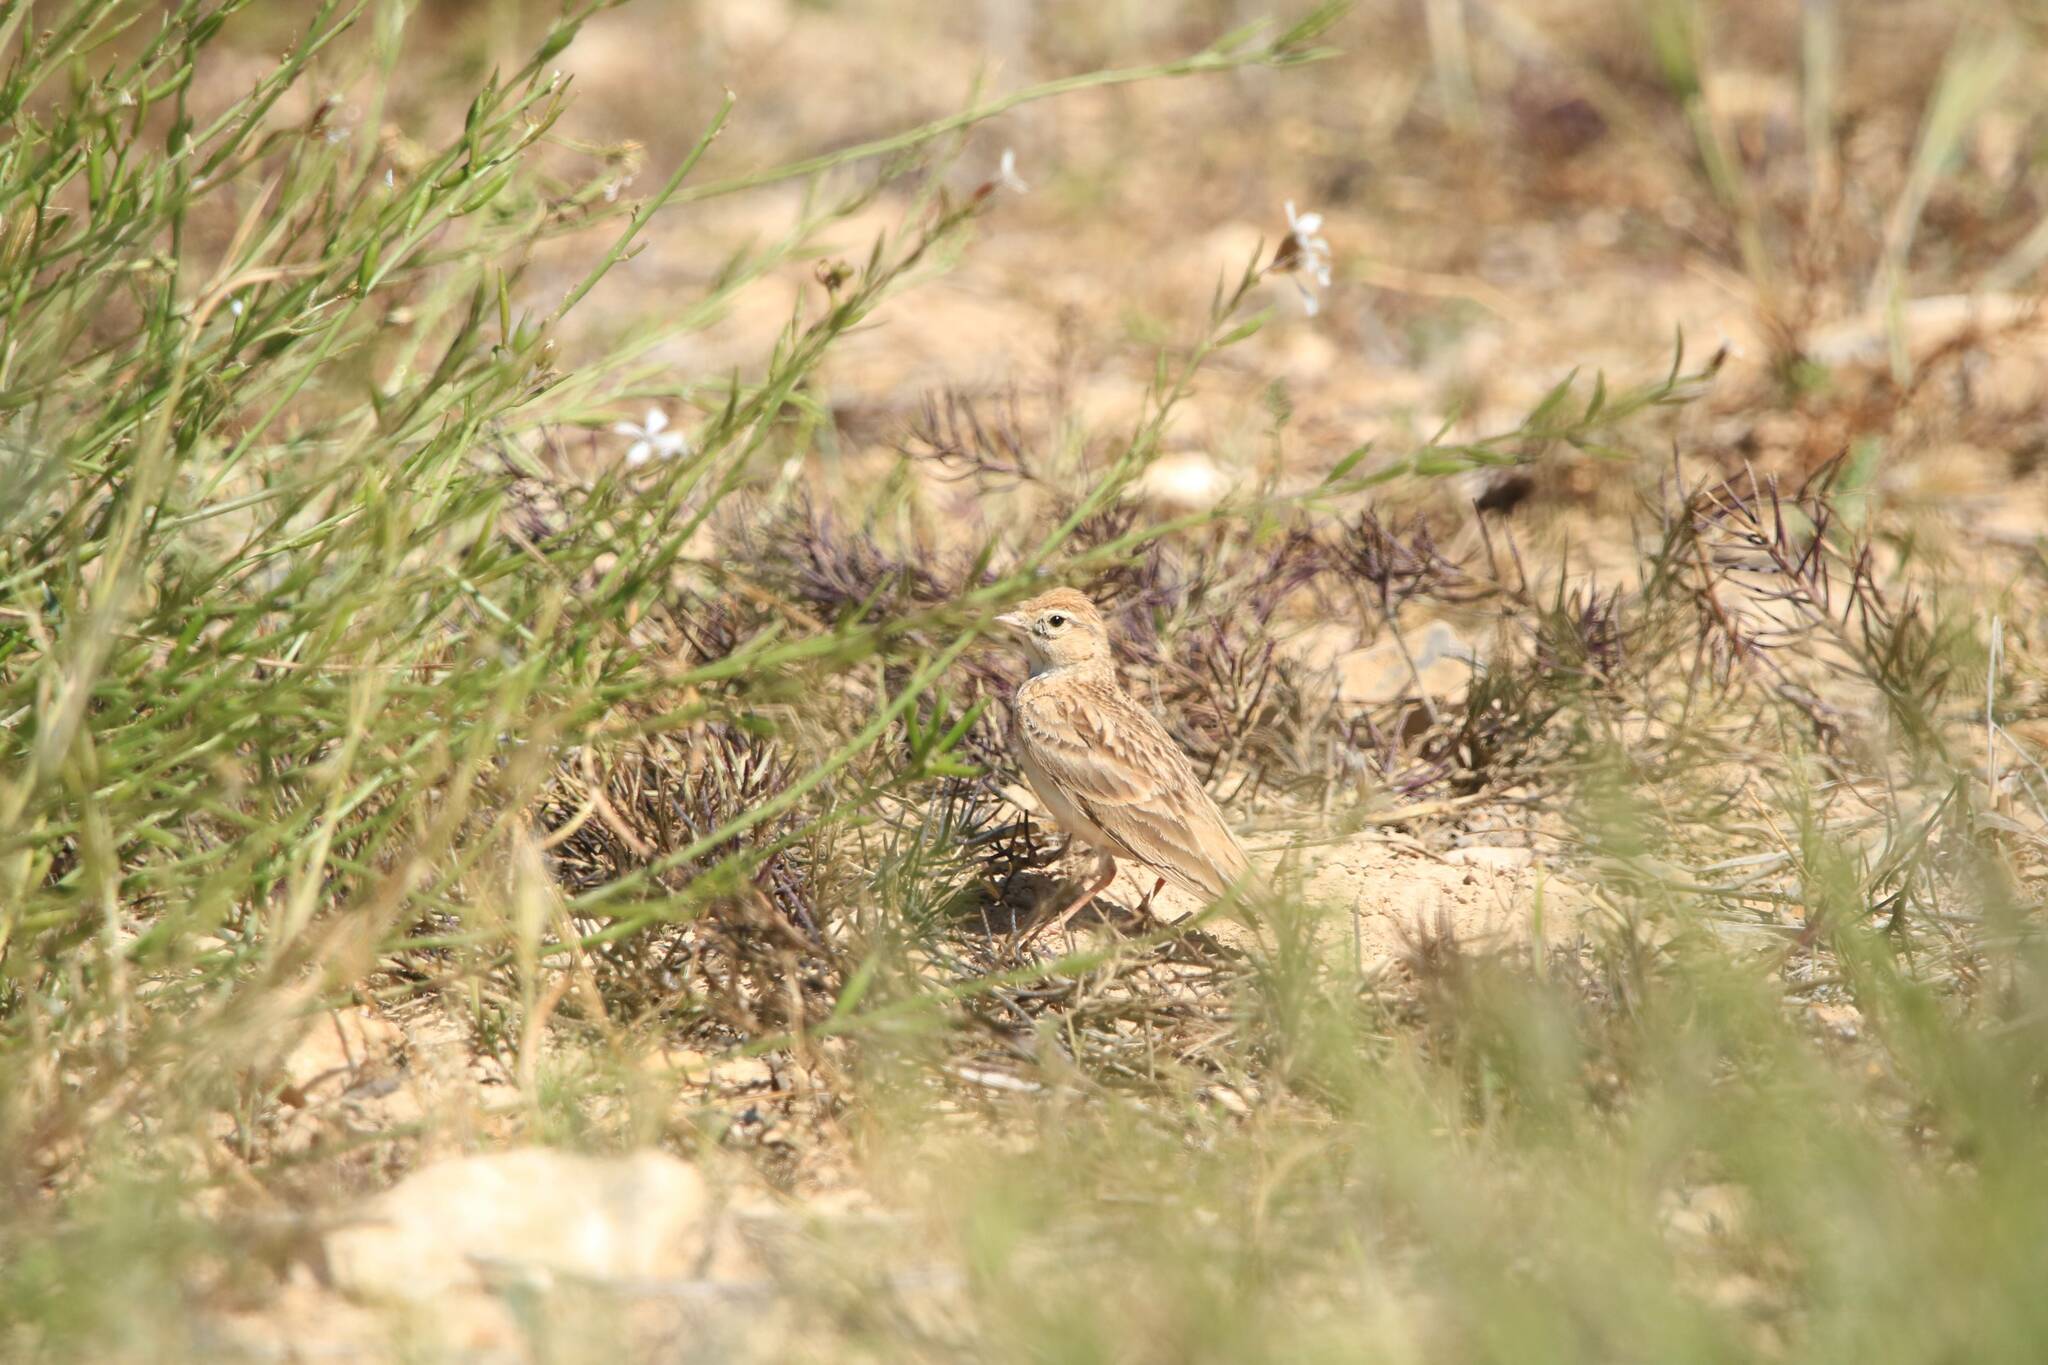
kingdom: Animalia
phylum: Chordata
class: Aves
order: Passeriformes
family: Alaudidae
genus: Calandrella
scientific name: Calandrella brachydactyla
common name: Greater short-toed lark
